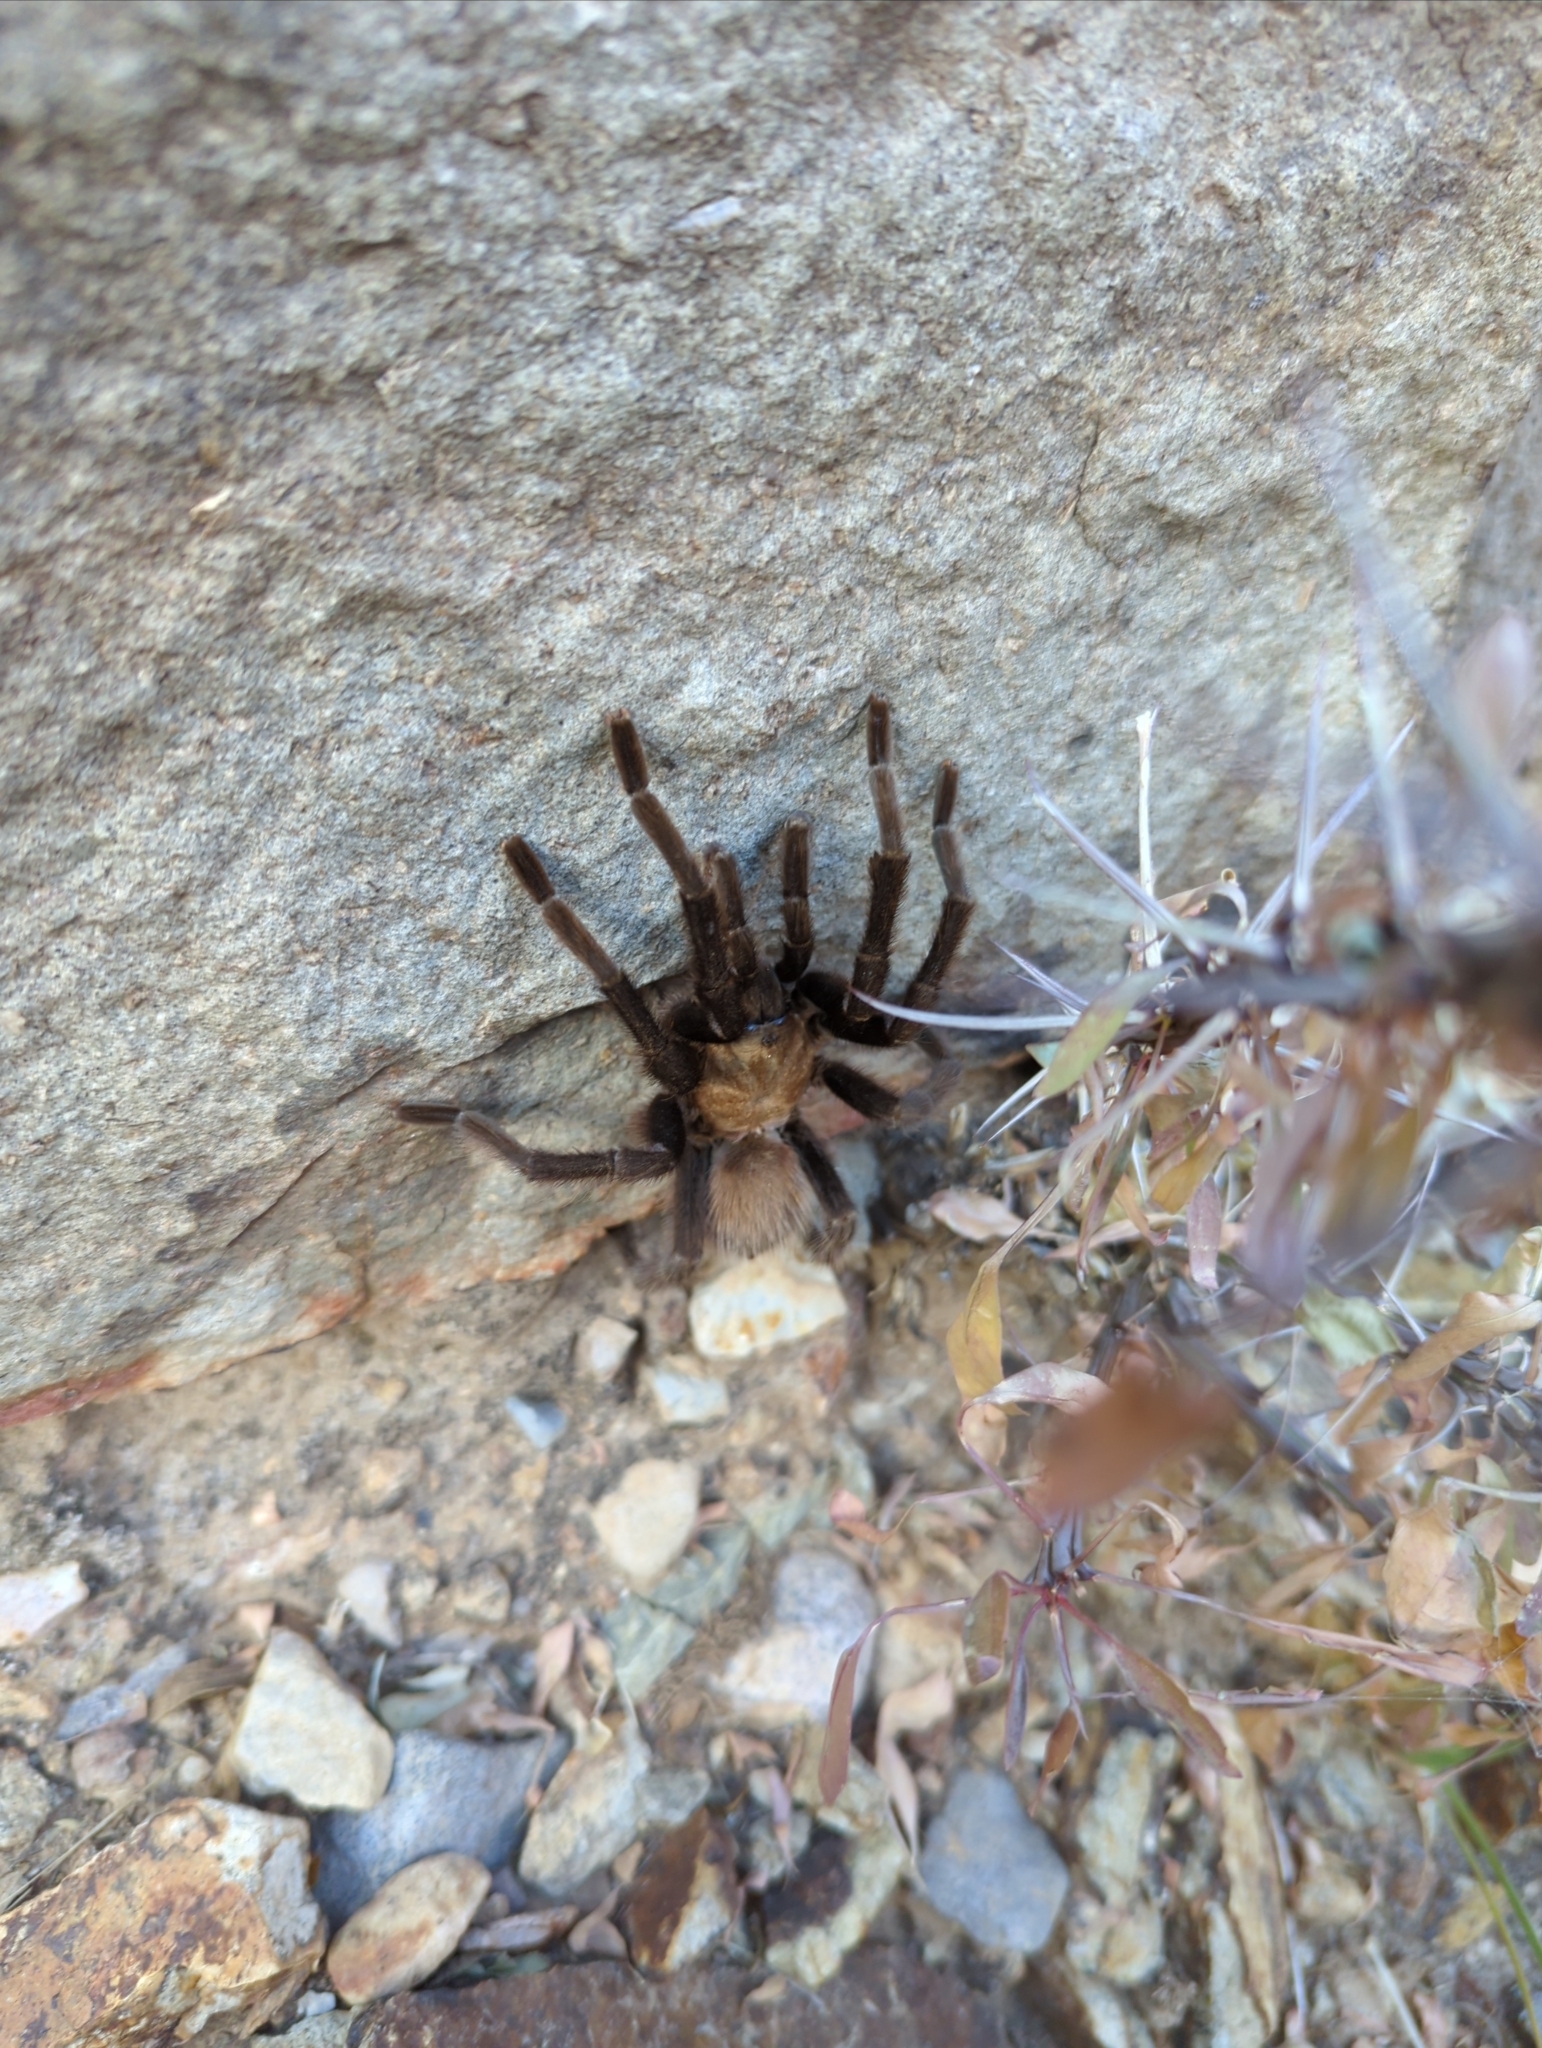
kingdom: Animalia
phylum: Arthropoda
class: Arachnida
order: Araneae
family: Theraphosidae
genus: Aphonopelma
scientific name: Aphonopelma hentzi
